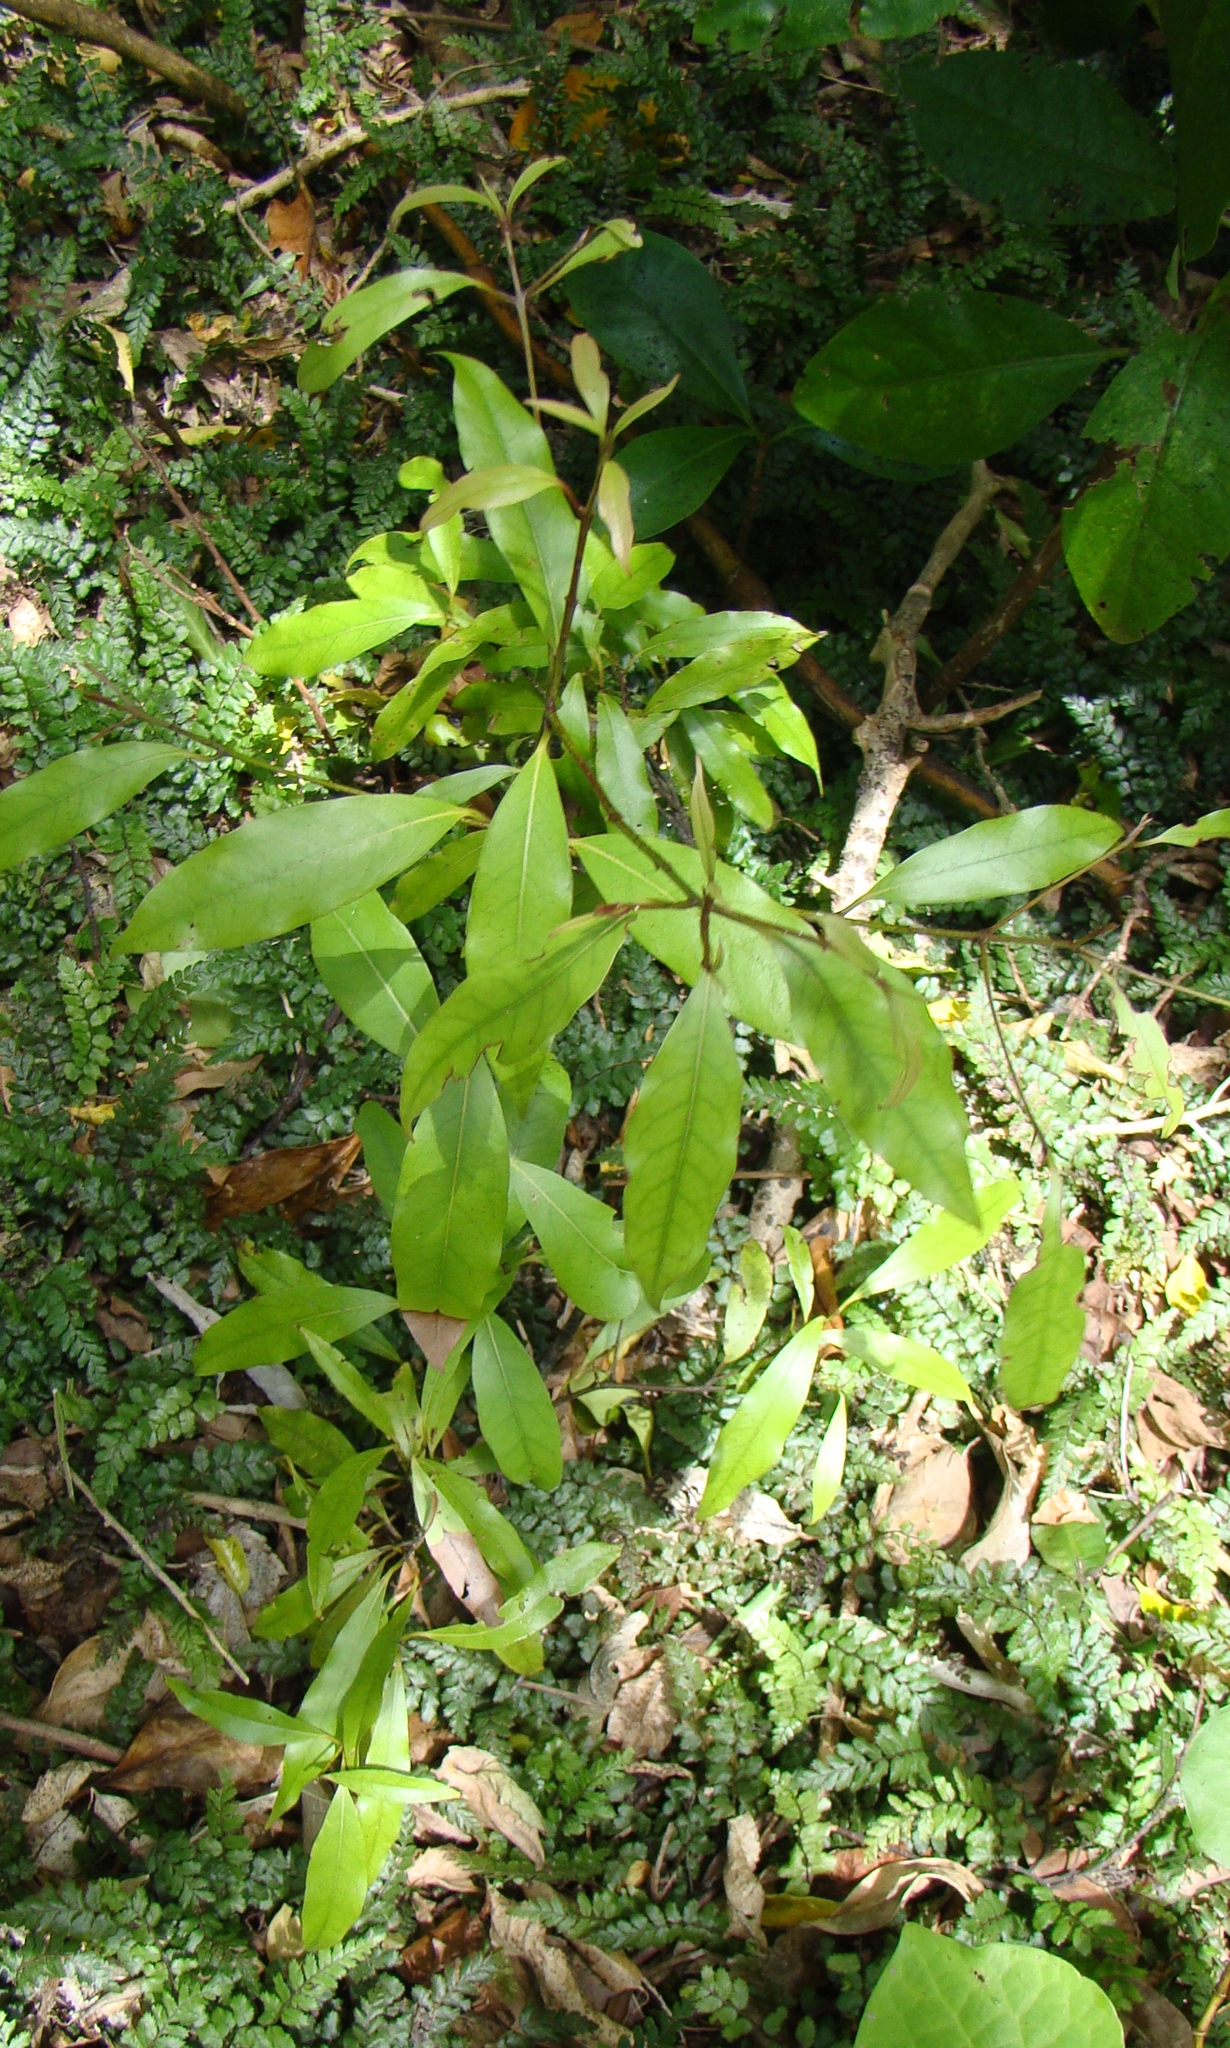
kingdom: Plantae
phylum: Tracheophyta
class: Magnoliopsida
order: Laurales
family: Lauraceae
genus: Beilschmiedia
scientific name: Beilschmiedia tawa
